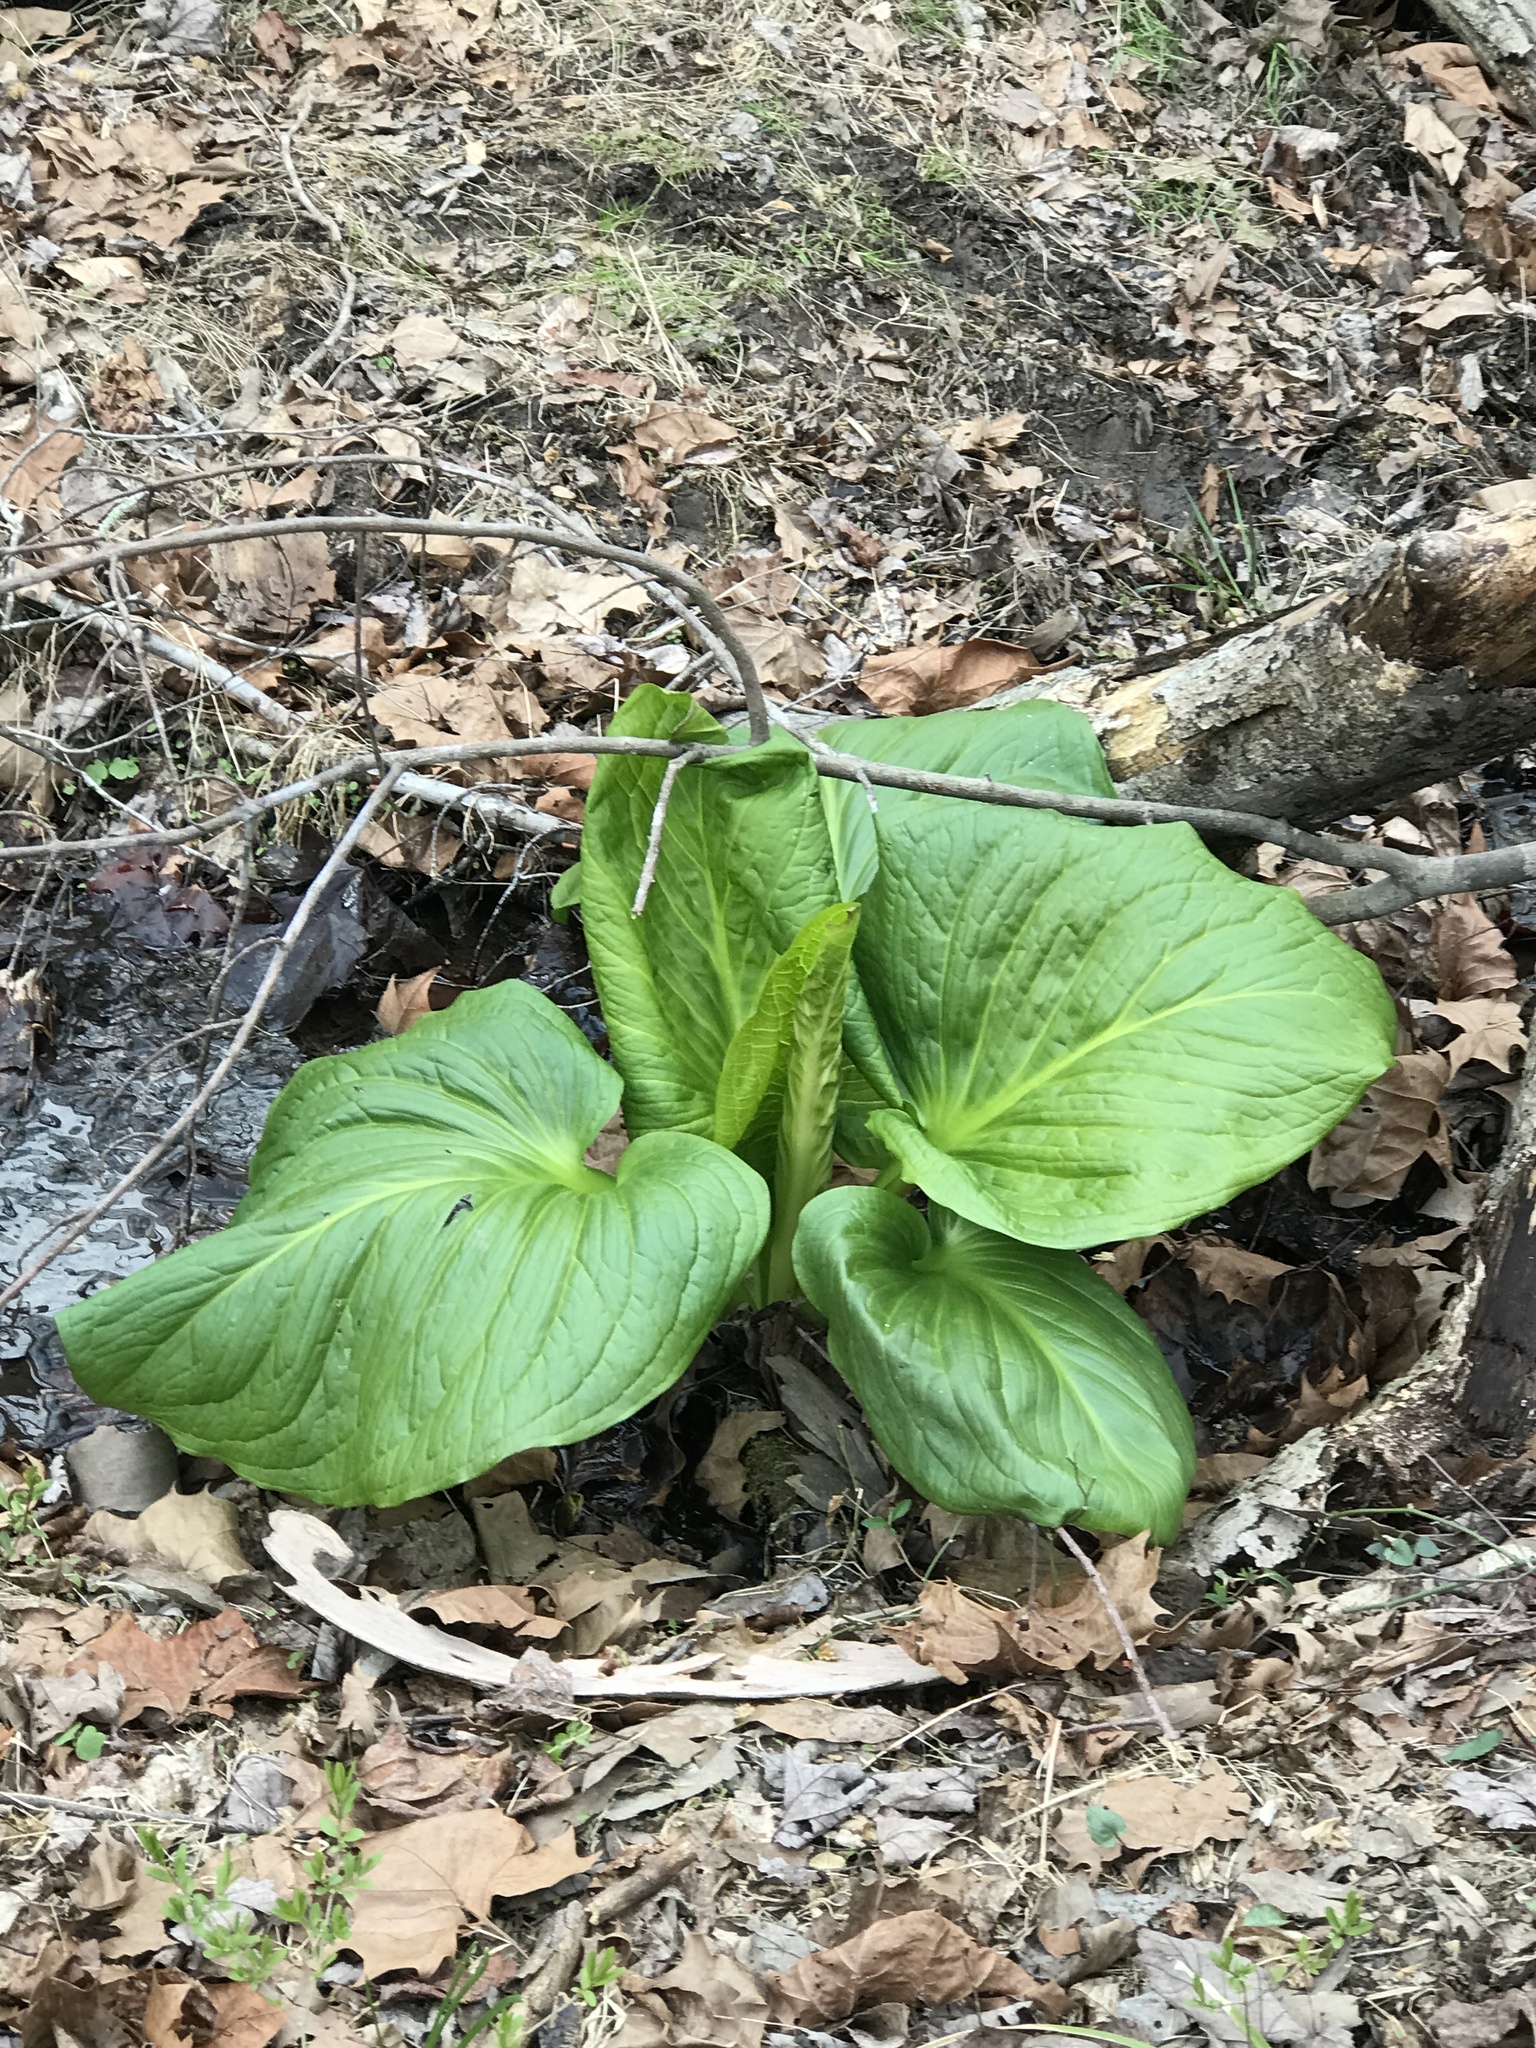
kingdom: Plantae
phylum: Tracheophyta
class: Liliopsida
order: Alismatales
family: Araceae
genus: Symplocarpus
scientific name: Symplocarpus foetidus
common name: Eastern skunk cabbage
